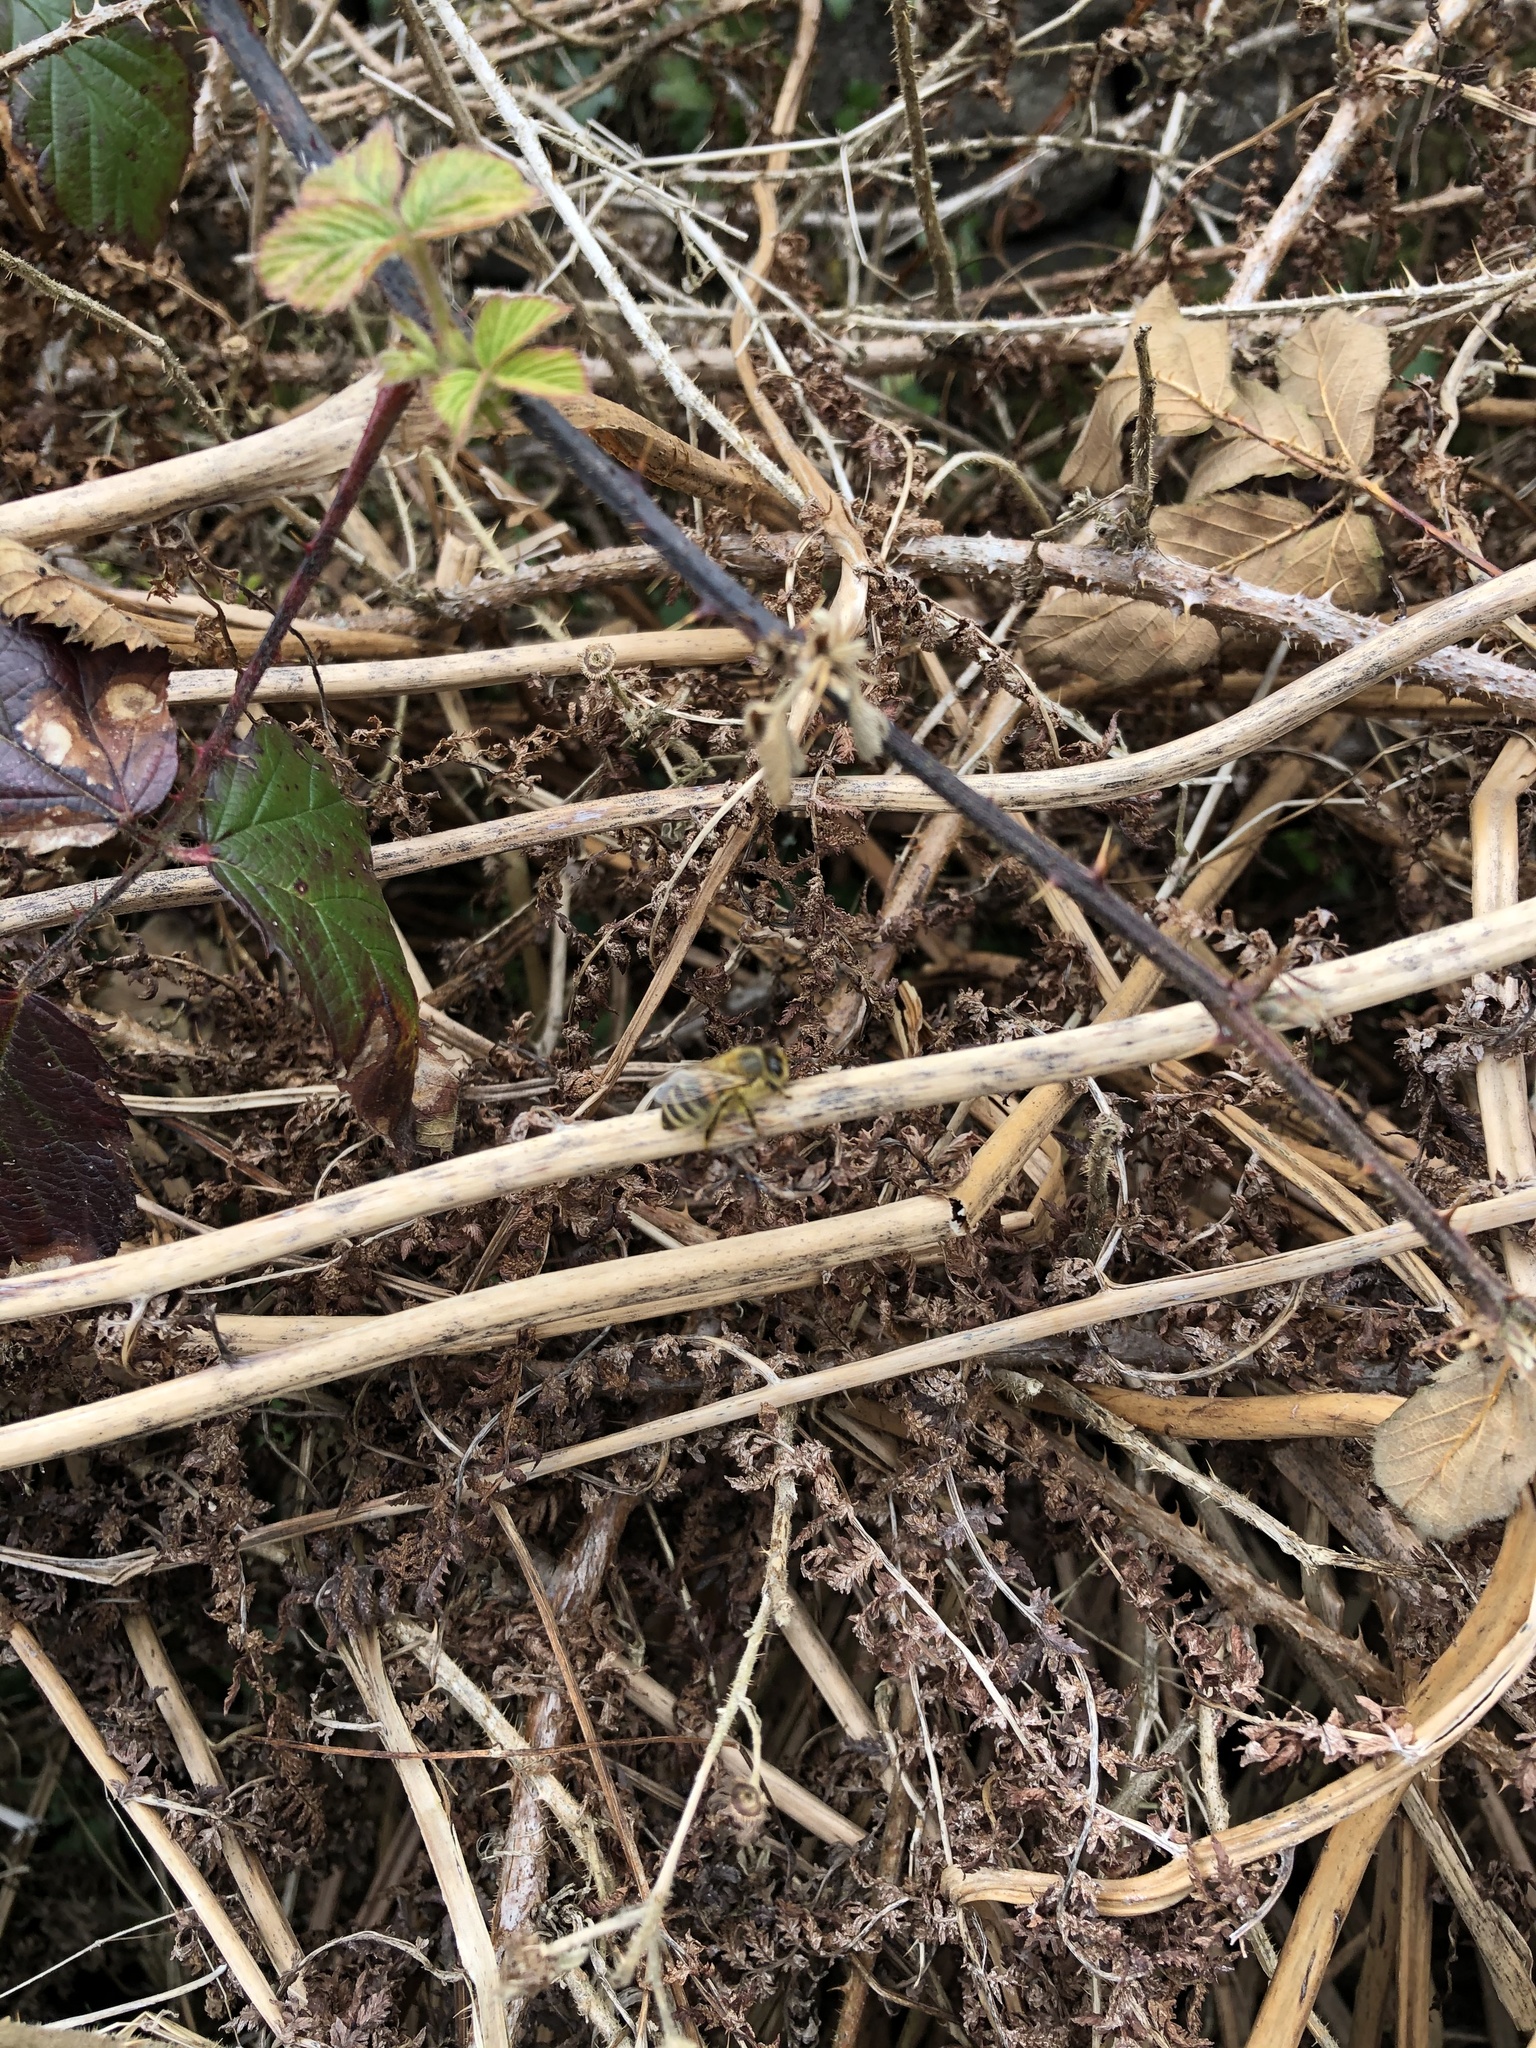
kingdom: Animalia
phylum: Arthropoda
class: Insecta
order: Hymenoptera
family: Apidae
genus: Apis
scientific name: Apis mellifera
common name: Honey bee
